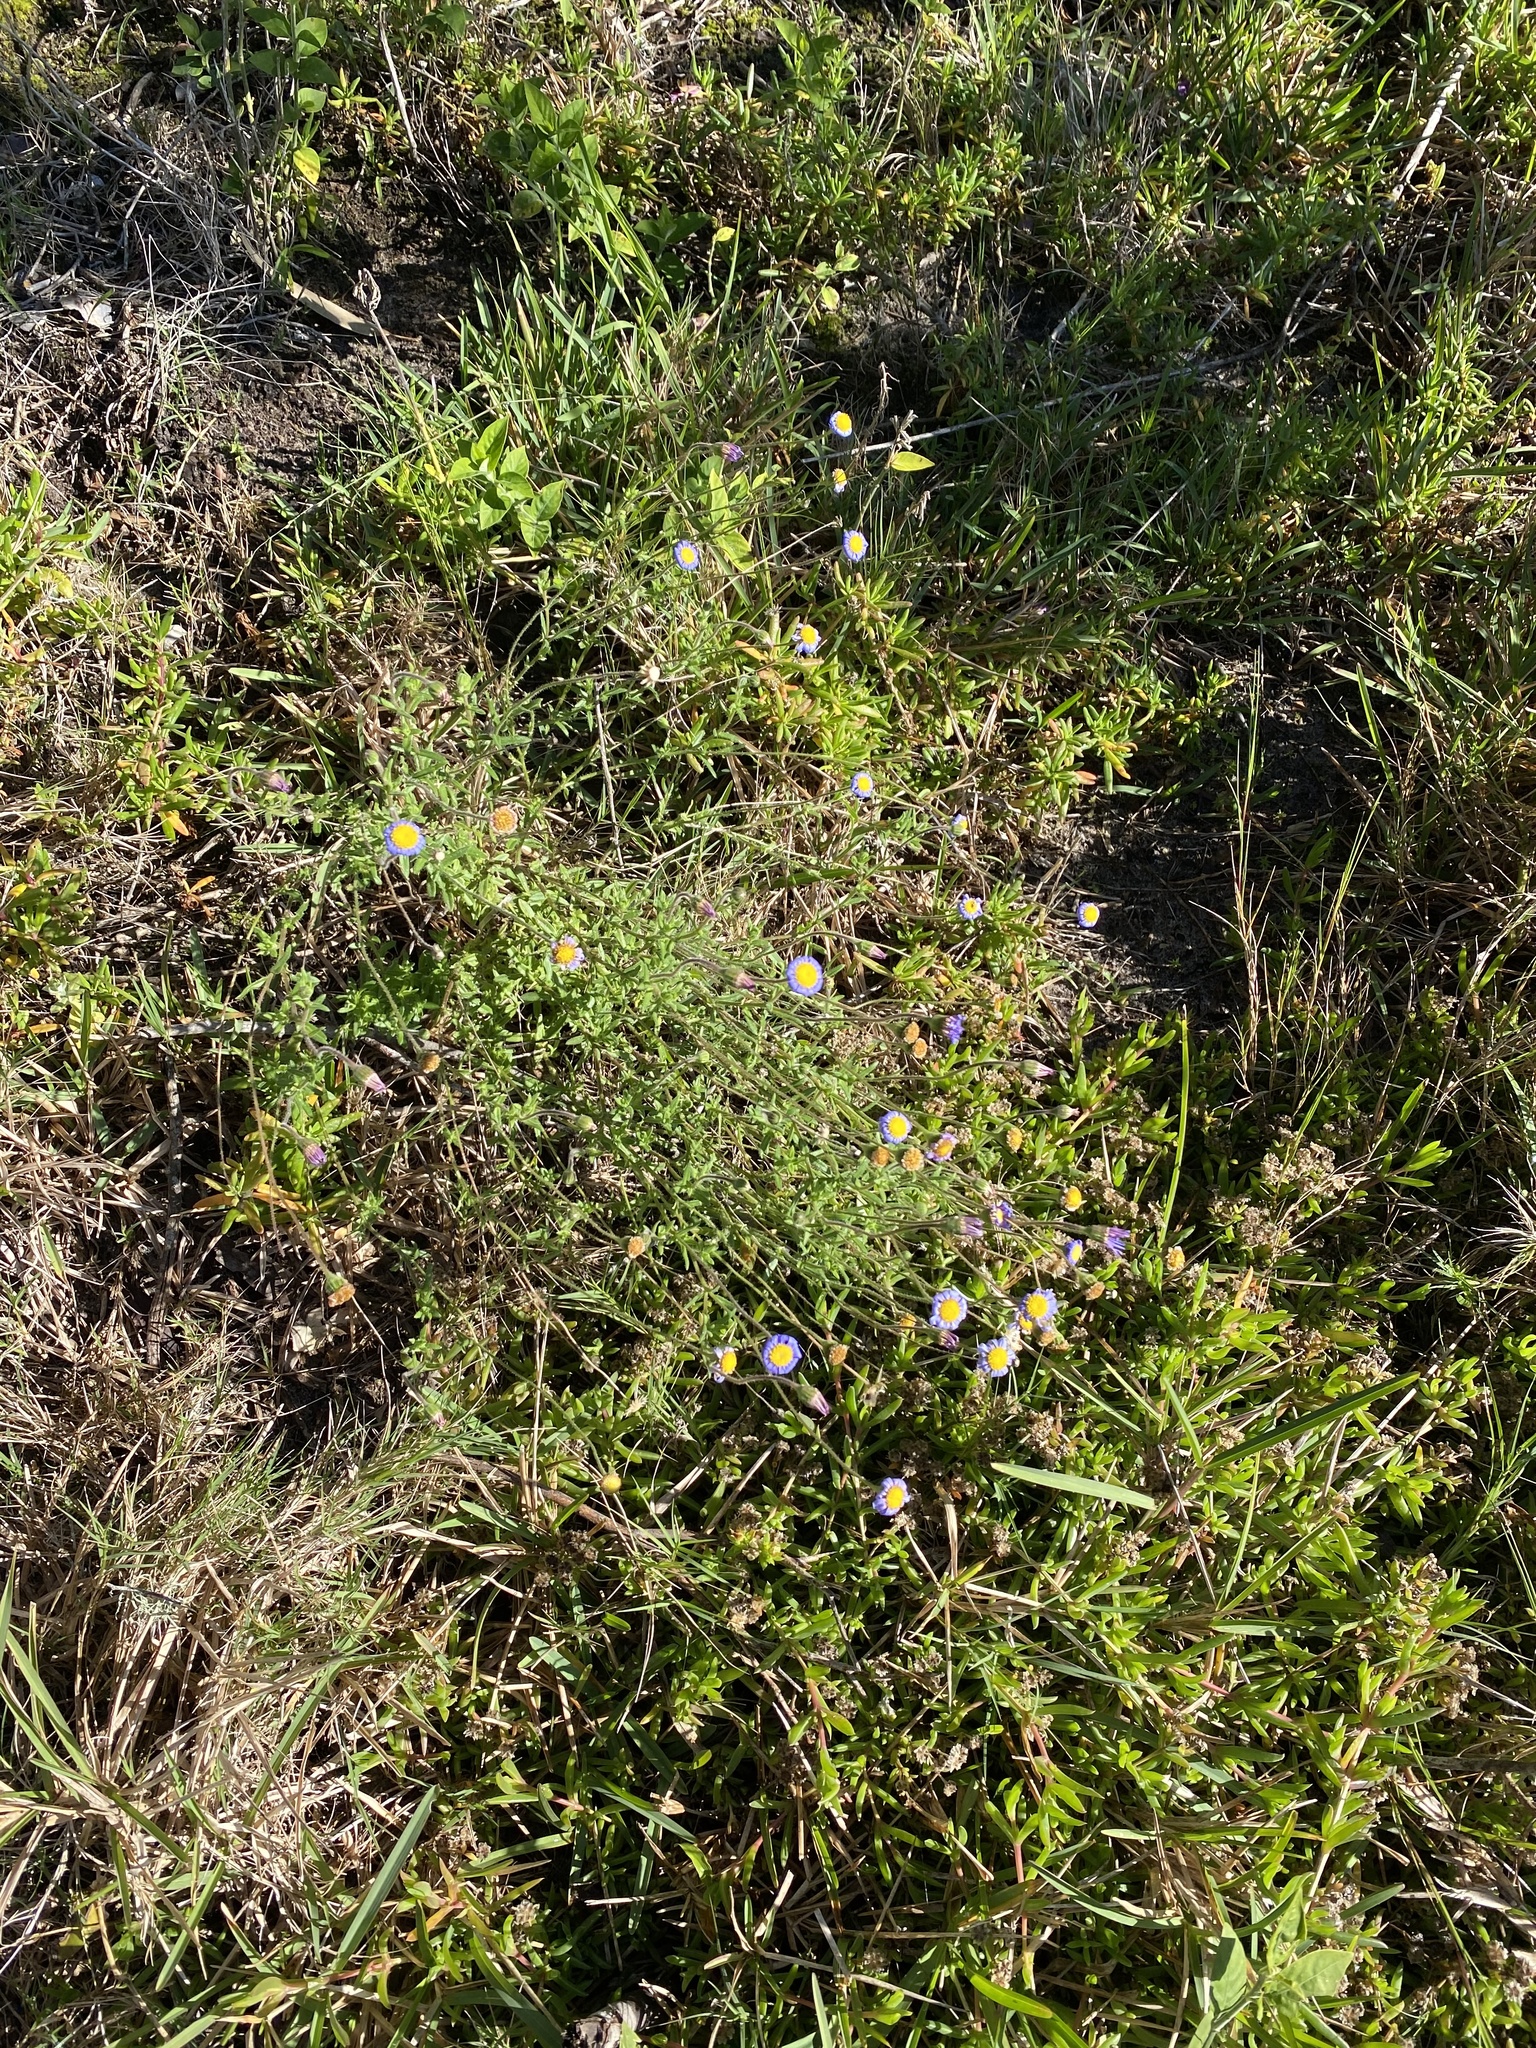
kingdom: Plantae
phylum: Tracheophyta
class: Magnoliopsida
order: Asterales
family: Asteraceae
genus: Felicia
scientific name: Felicia amoena
